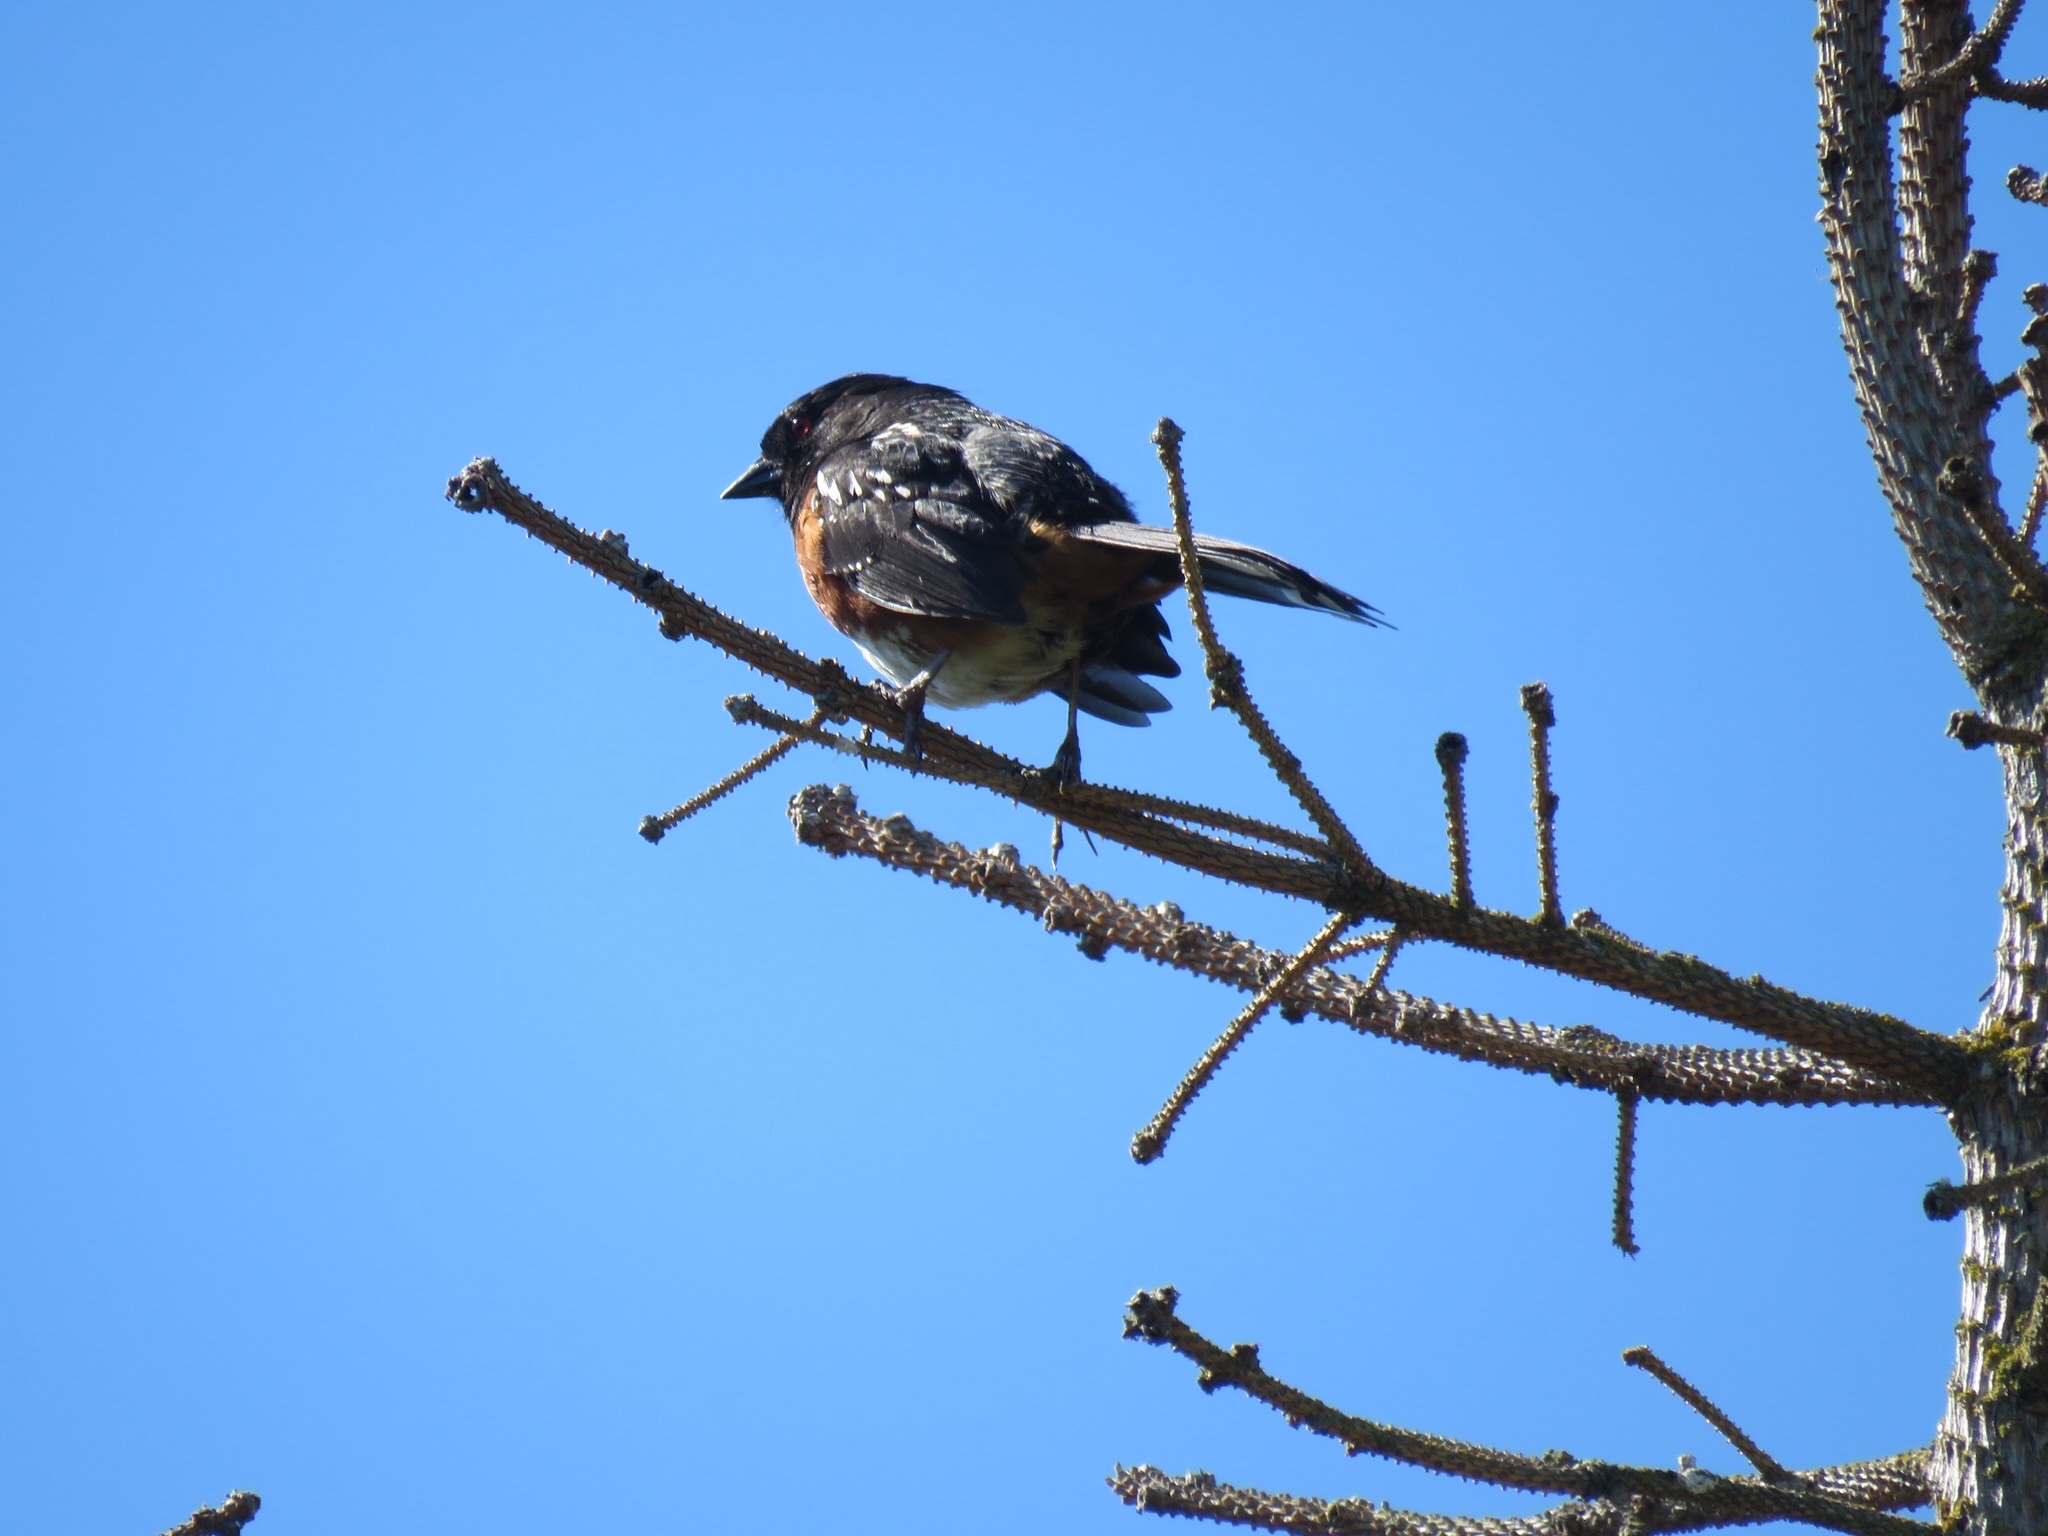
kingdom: Animalia
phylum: Chordata
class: Aves
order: Passeriformes
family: Passerellidae
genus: Pipilo
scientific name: Pipilo maculatus
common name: Spotted towhee
